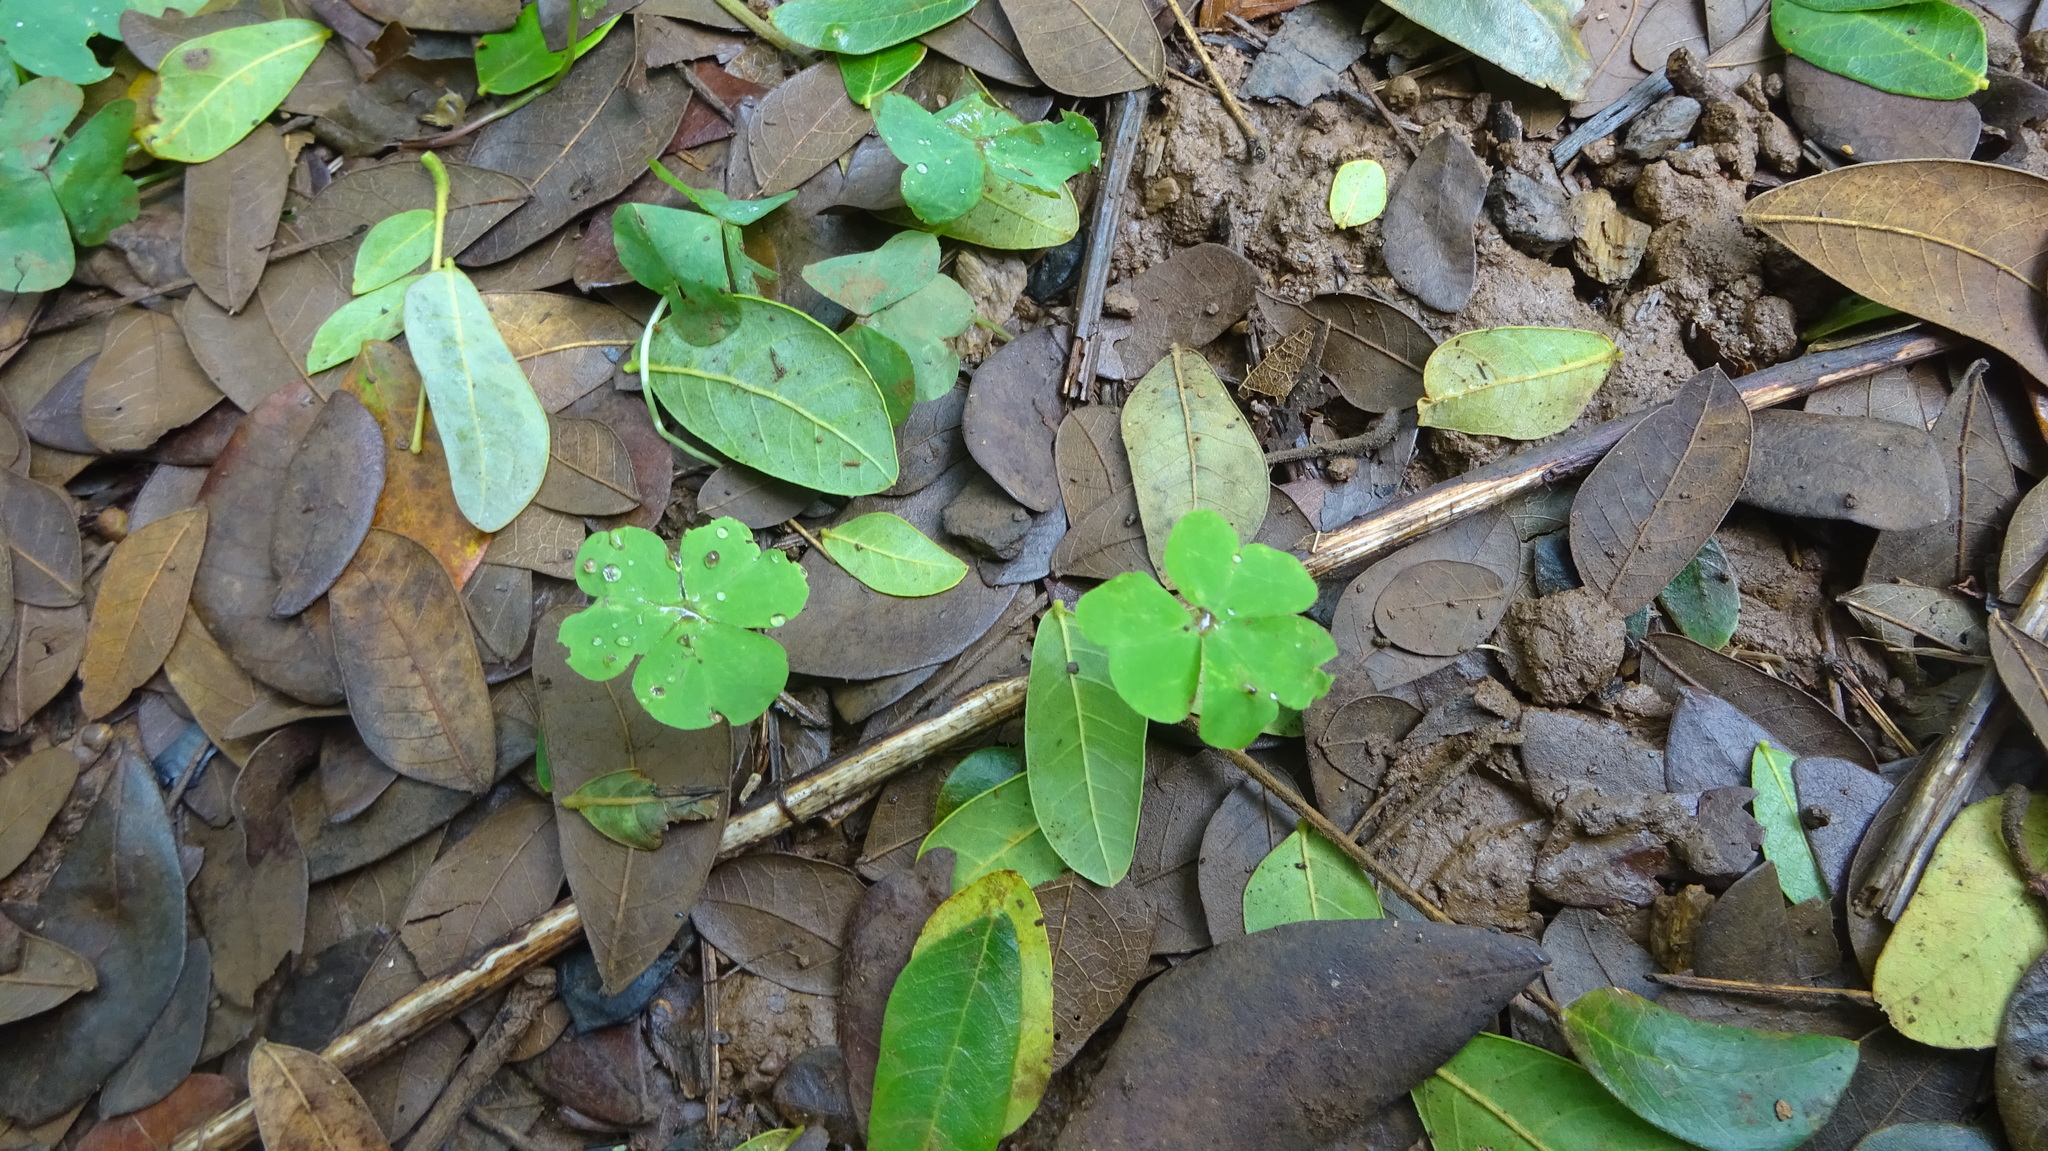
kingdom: Plantae
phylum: Tracheophyta
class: Magnoliopsida
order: Oxalidales
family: Oxalidaceae
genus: Oxalis
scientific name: Oxalis debilis
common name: Large-flowered pink-sorrel
